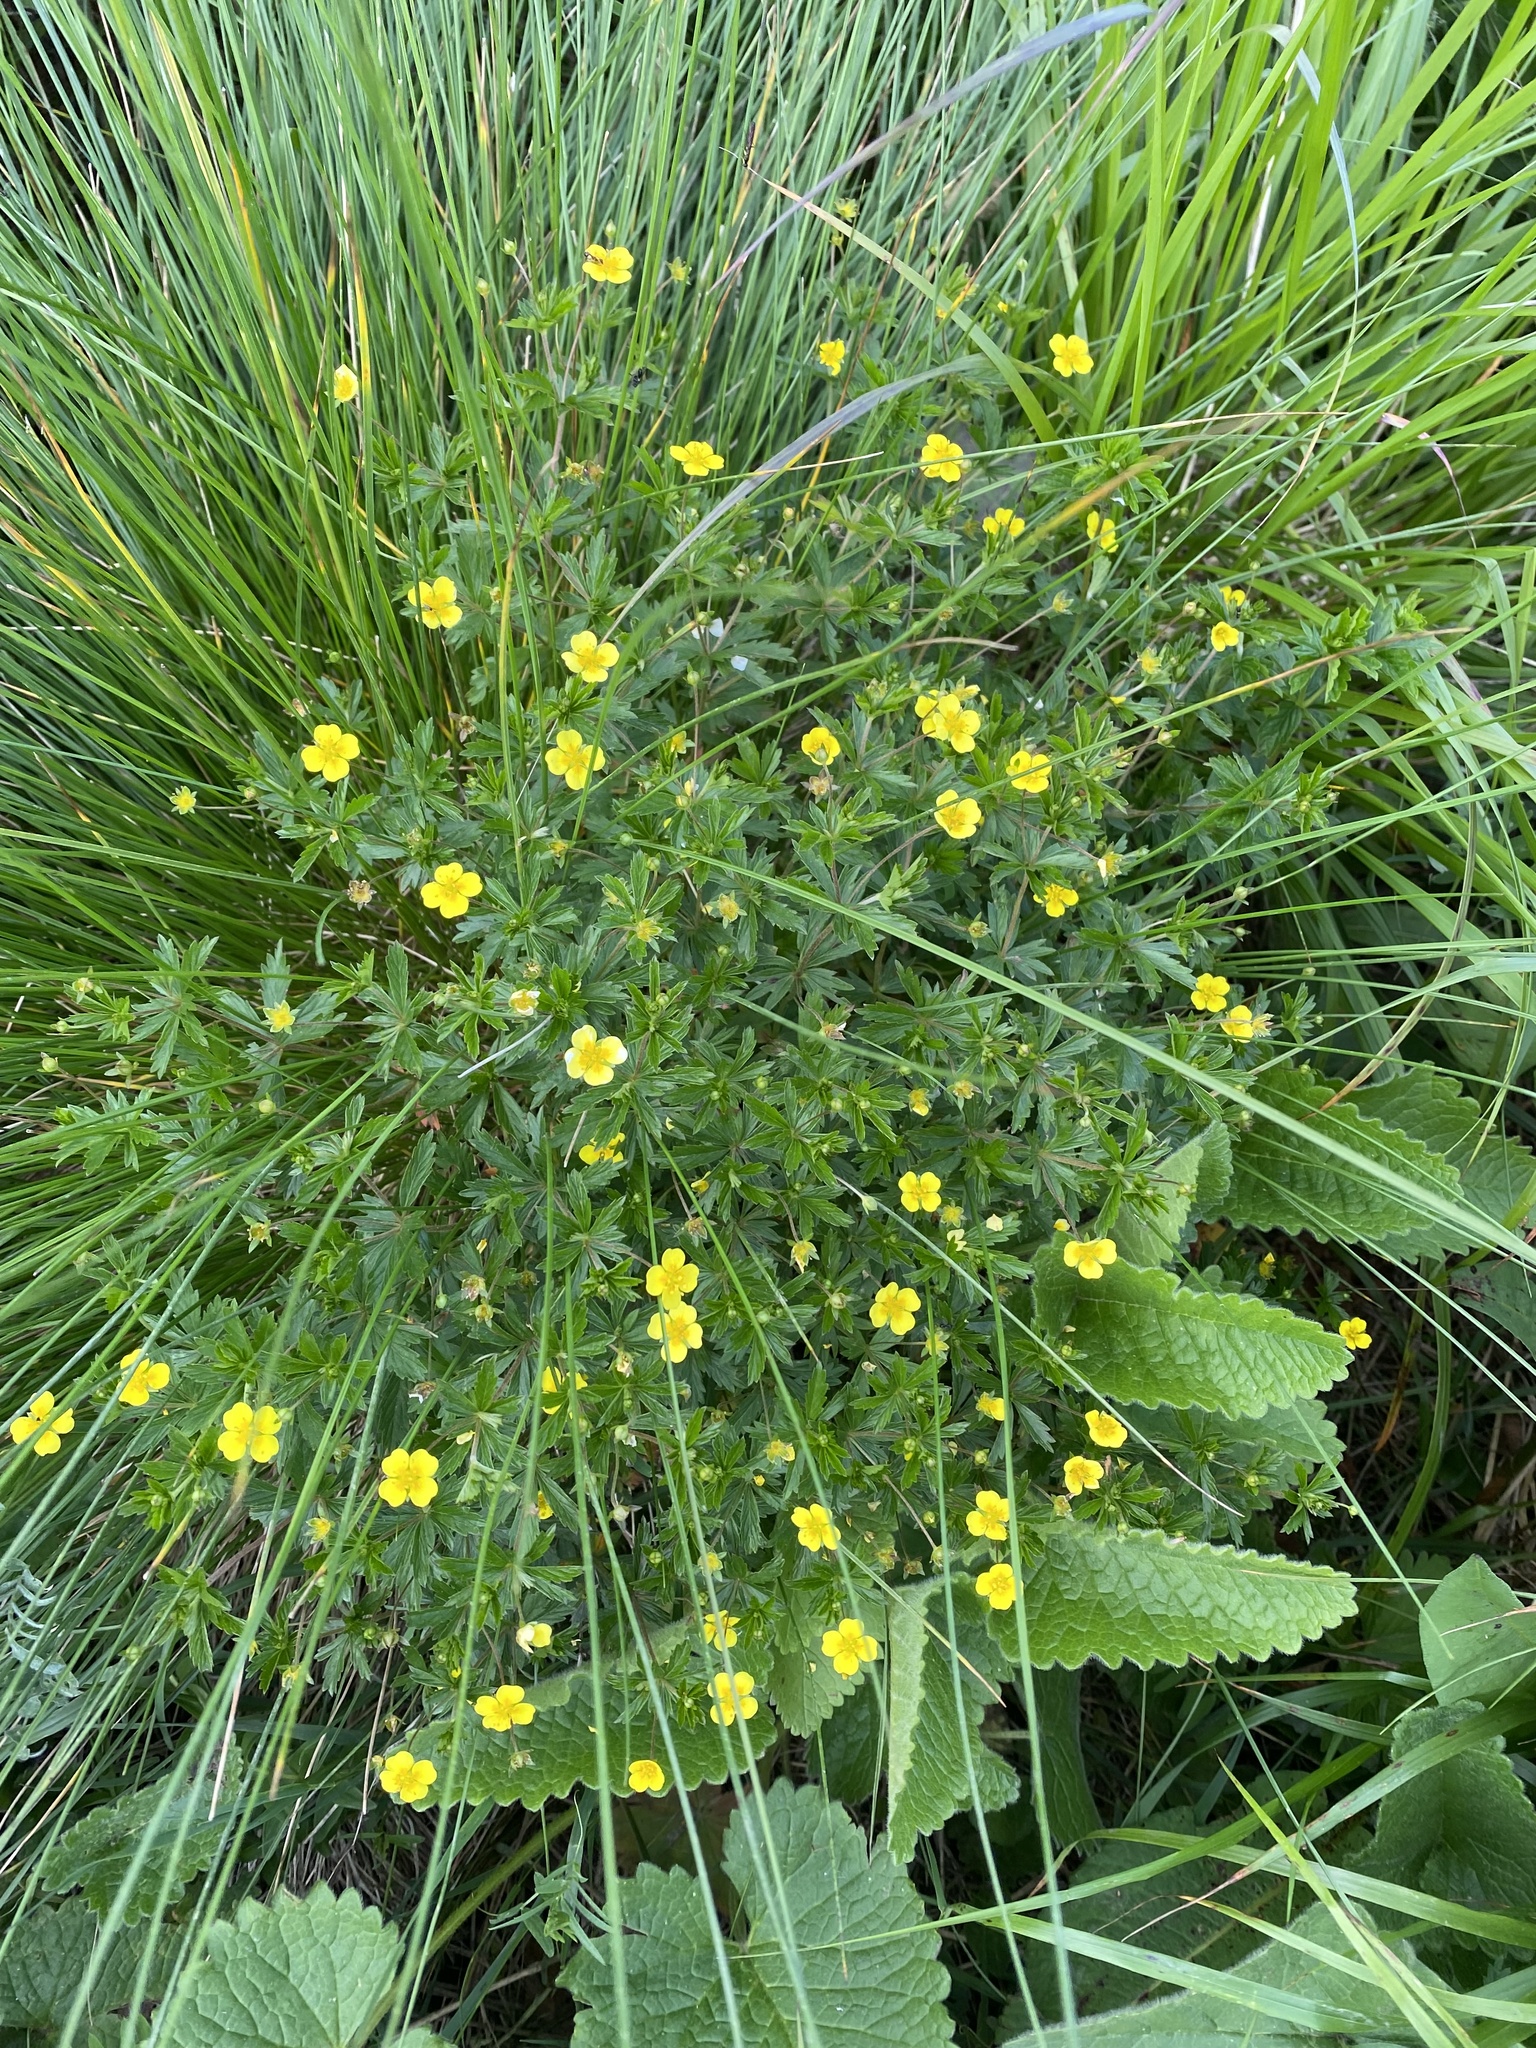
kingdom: Plantae
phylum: Tracheophyta
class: Magnoliopsida
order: Rosales
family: Rosaceae
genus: Potentilla
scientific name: Potentilla erecta
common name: Tormentil
